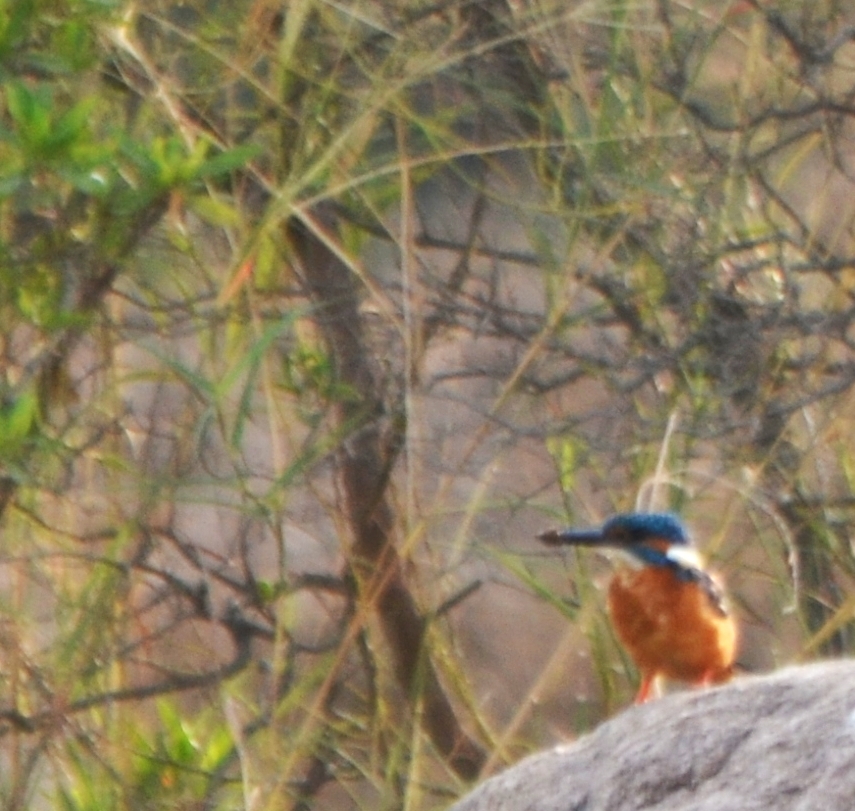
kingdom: Animalia
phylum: Chordata
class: Aves
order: Coraciiformes
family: Alcedinidae
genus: Alcedo
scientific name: Alcedo atthis
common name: Common kingfisher
